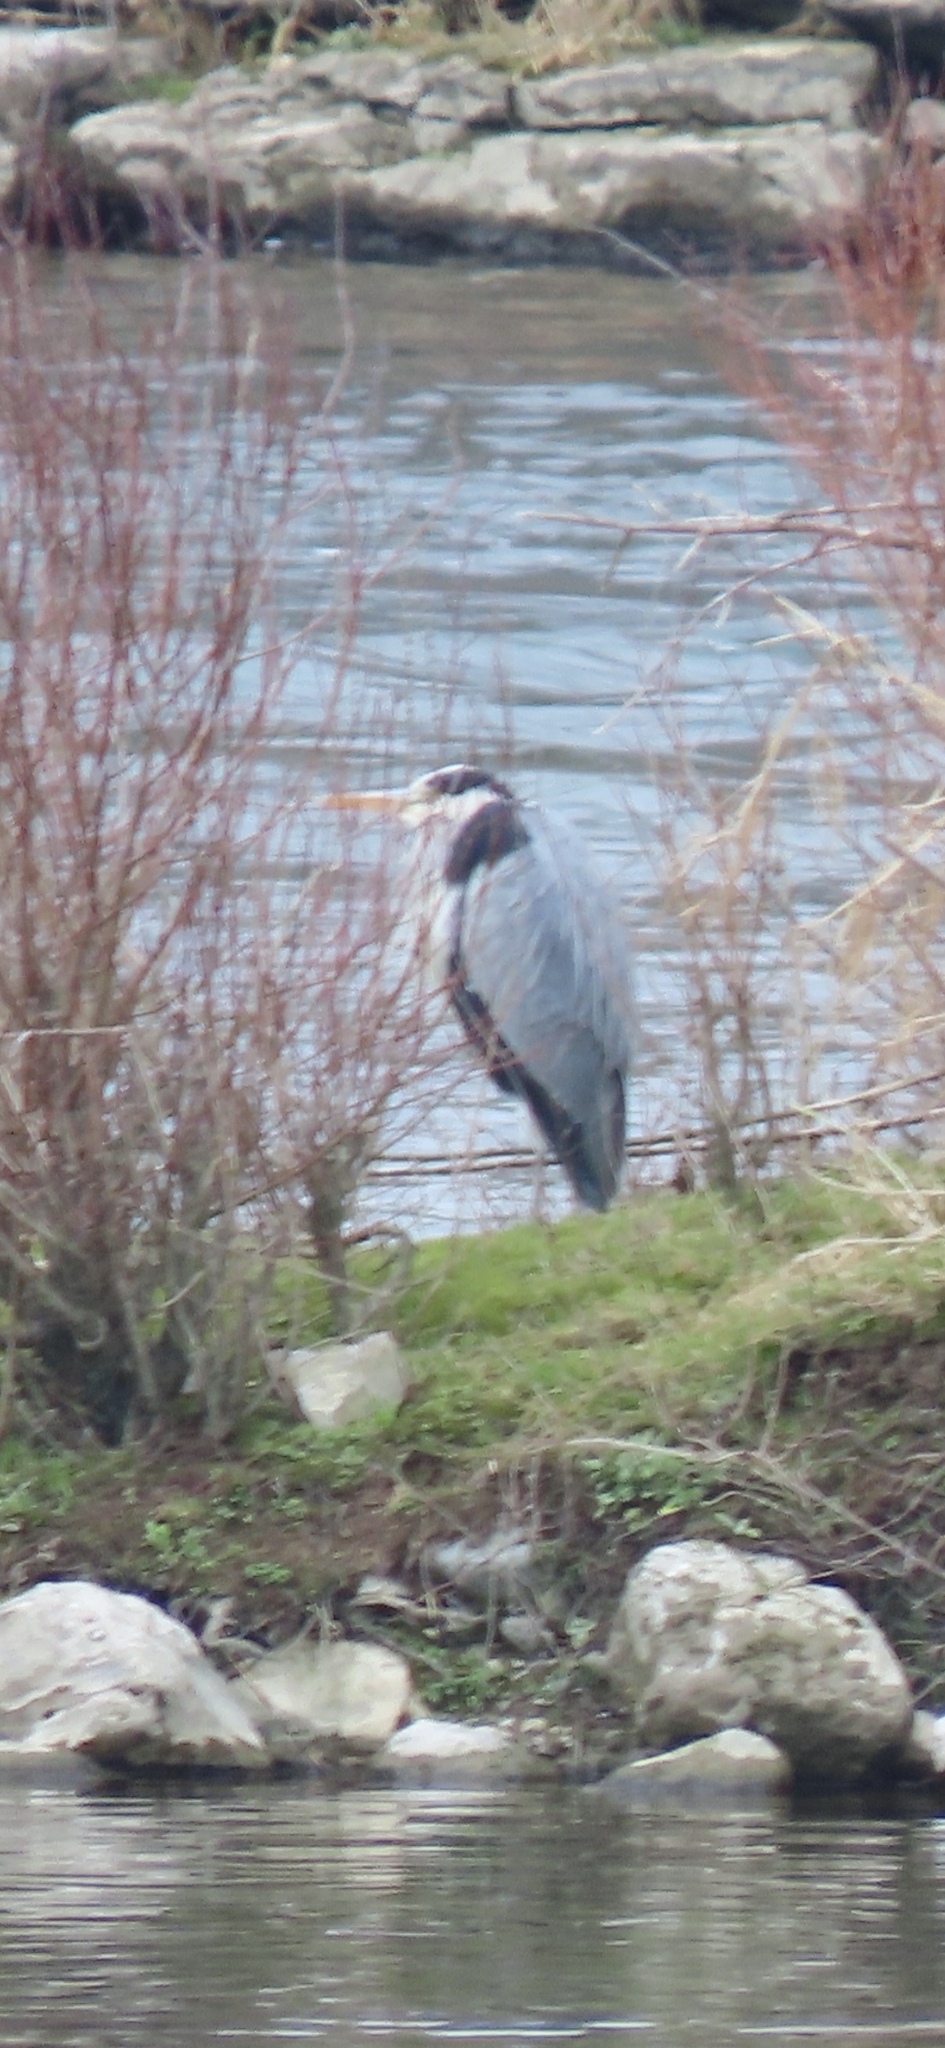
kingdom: Animalia
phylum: Chordata
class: Aves
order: Pelecaniformes
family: Ardeidae
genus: Ardea
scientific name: Ardea cinerea
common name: Grey heron
